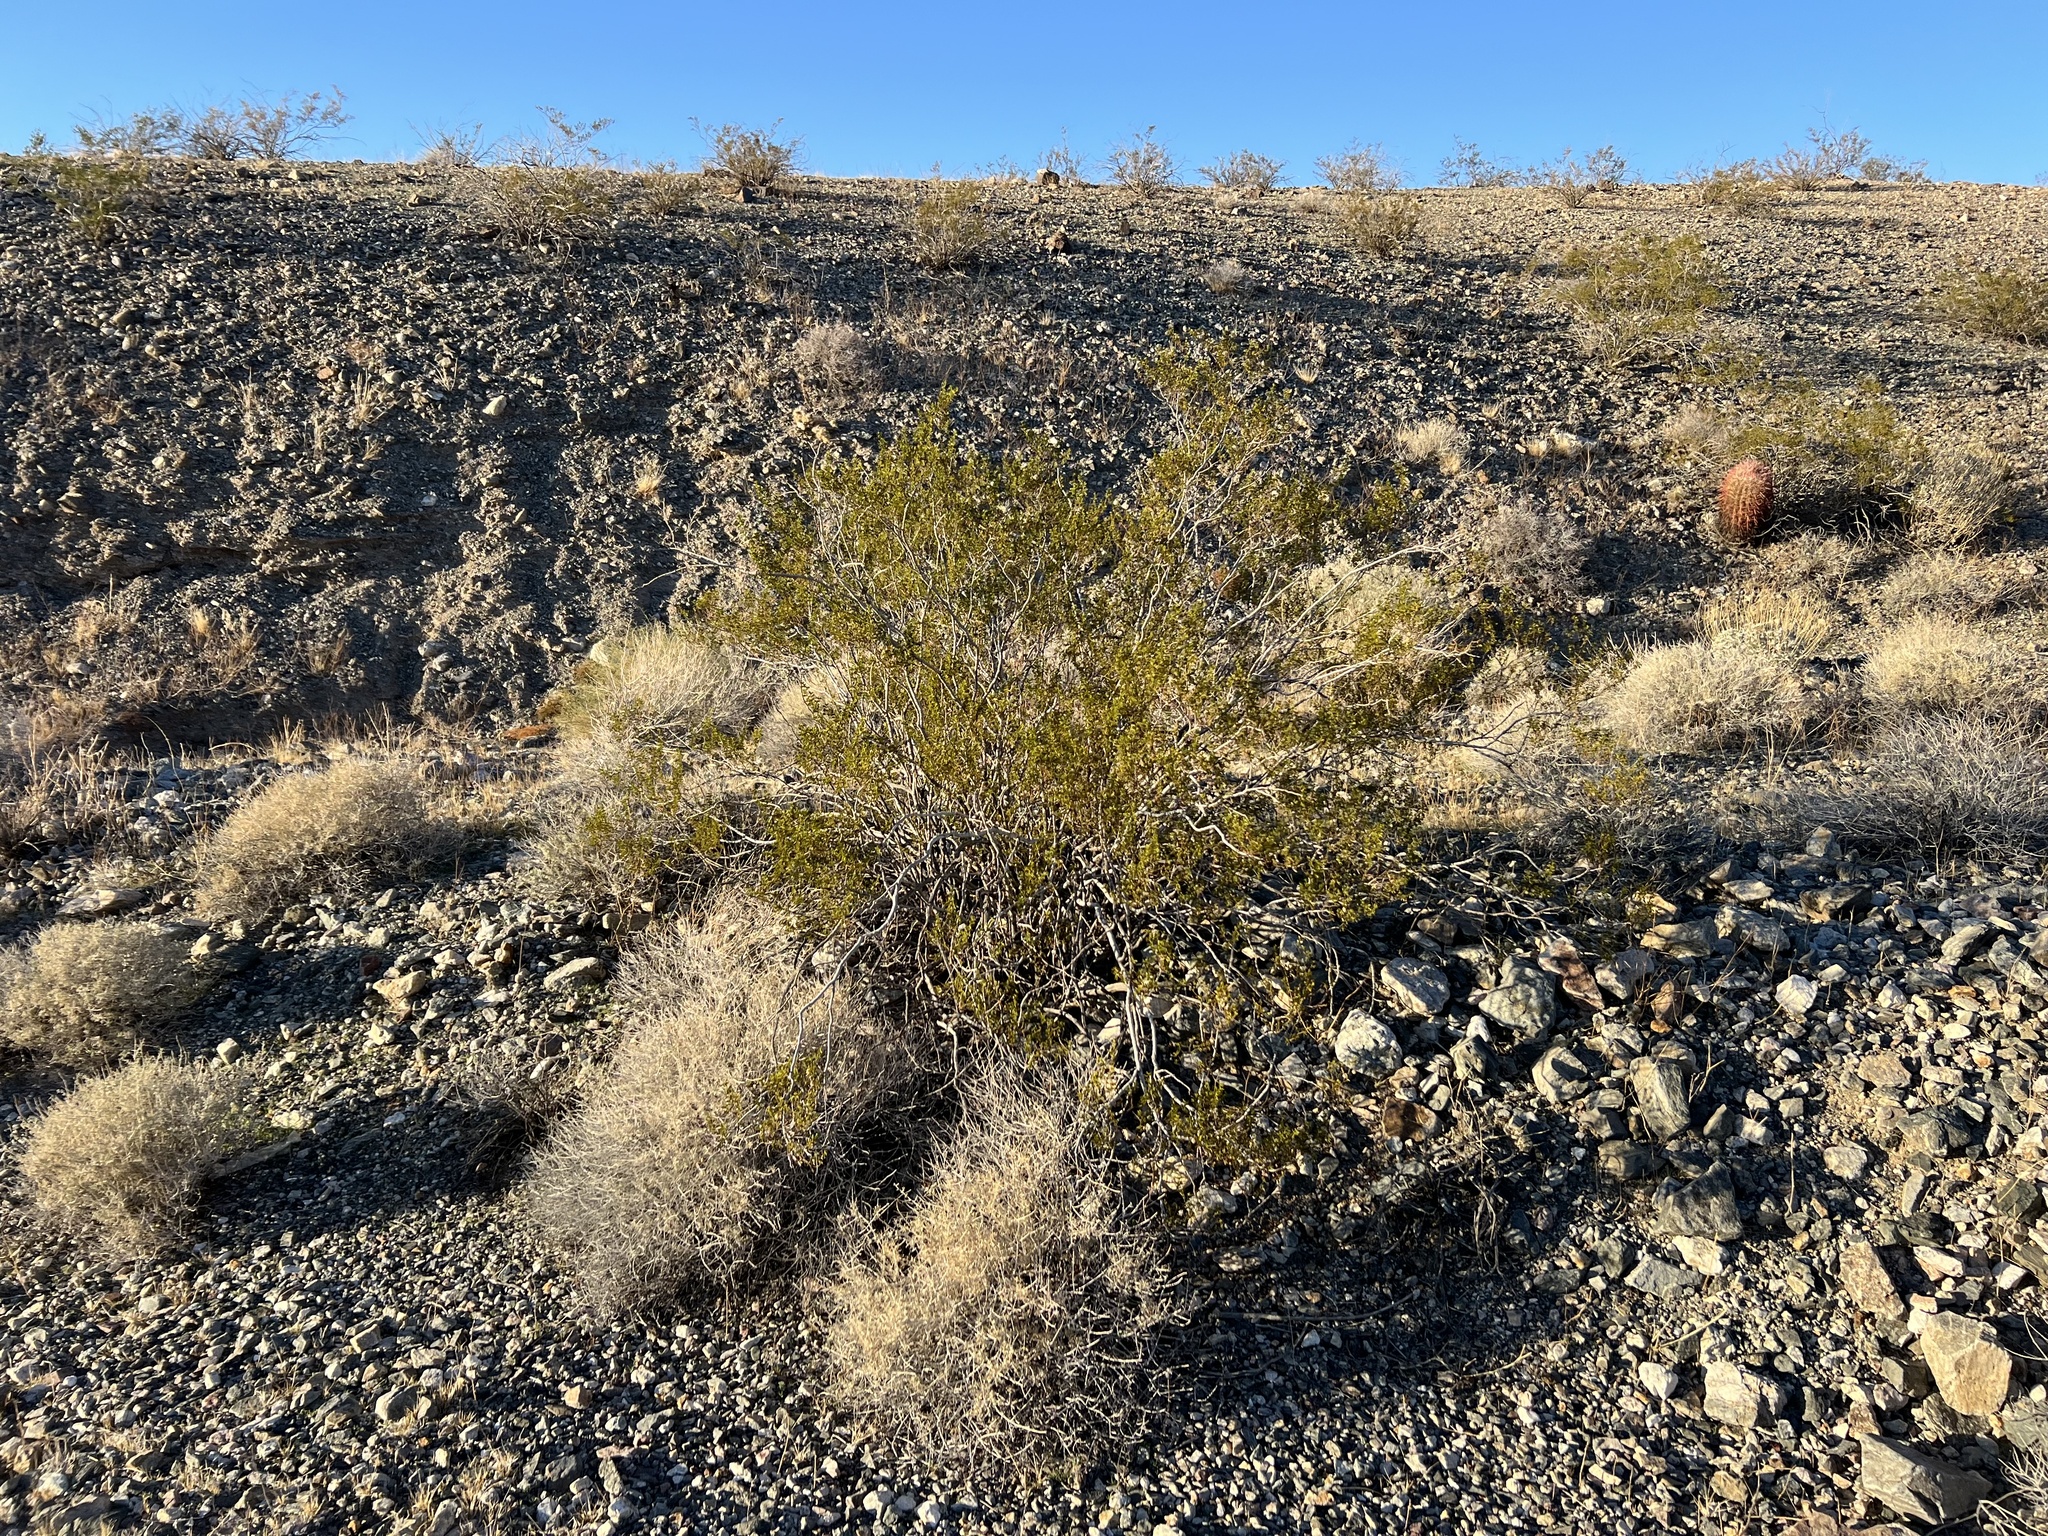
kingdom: Plantae
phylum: Tracheophyta
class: Magnoliopsida
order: Zygophyllales
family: Zygophyllaceae
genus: Larrea
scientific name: Larrea tridentata
